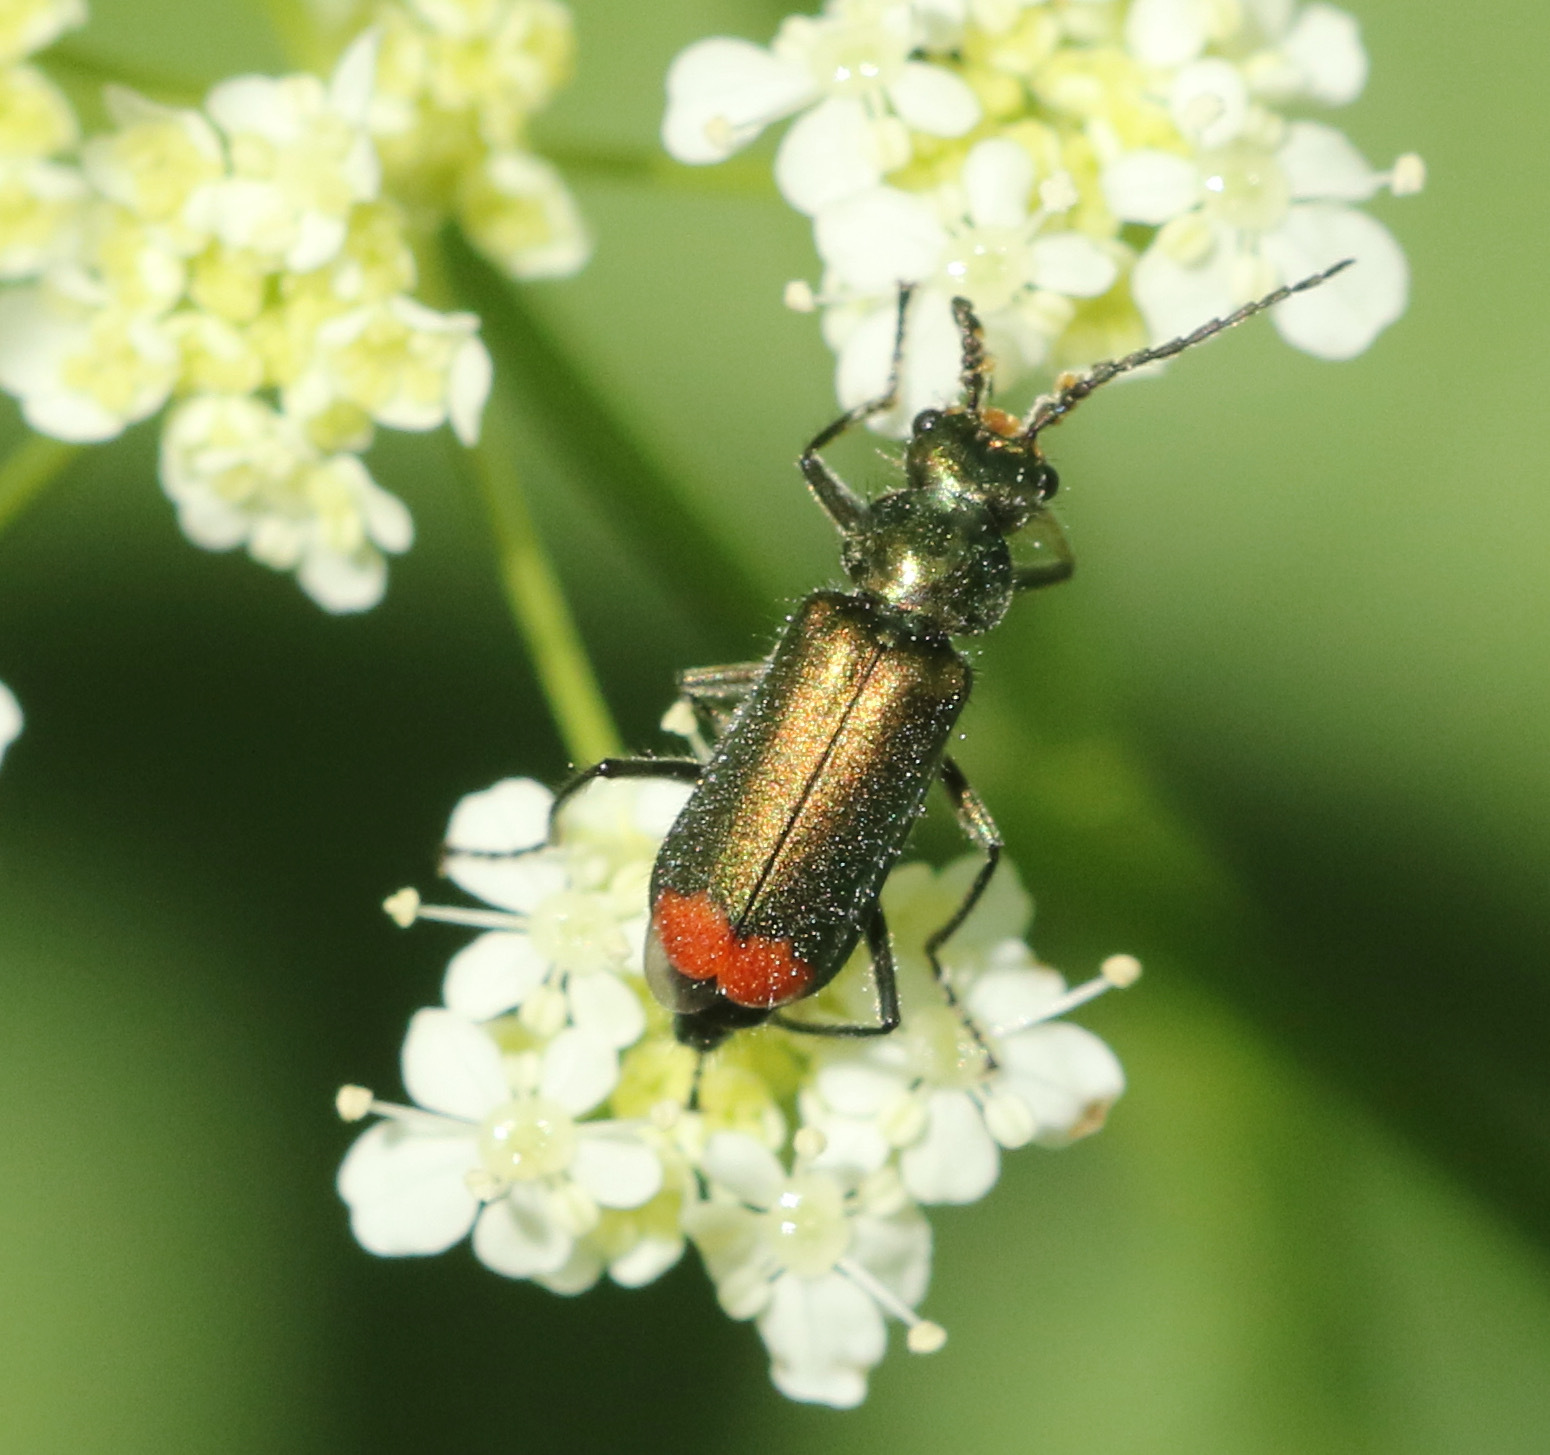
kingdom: Animalia
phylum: Arthropoda
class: Insecta
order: Coleoptera
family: Melyridae
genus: Malachius
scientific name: Malachius bipustulatus
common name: Malachite beetle
